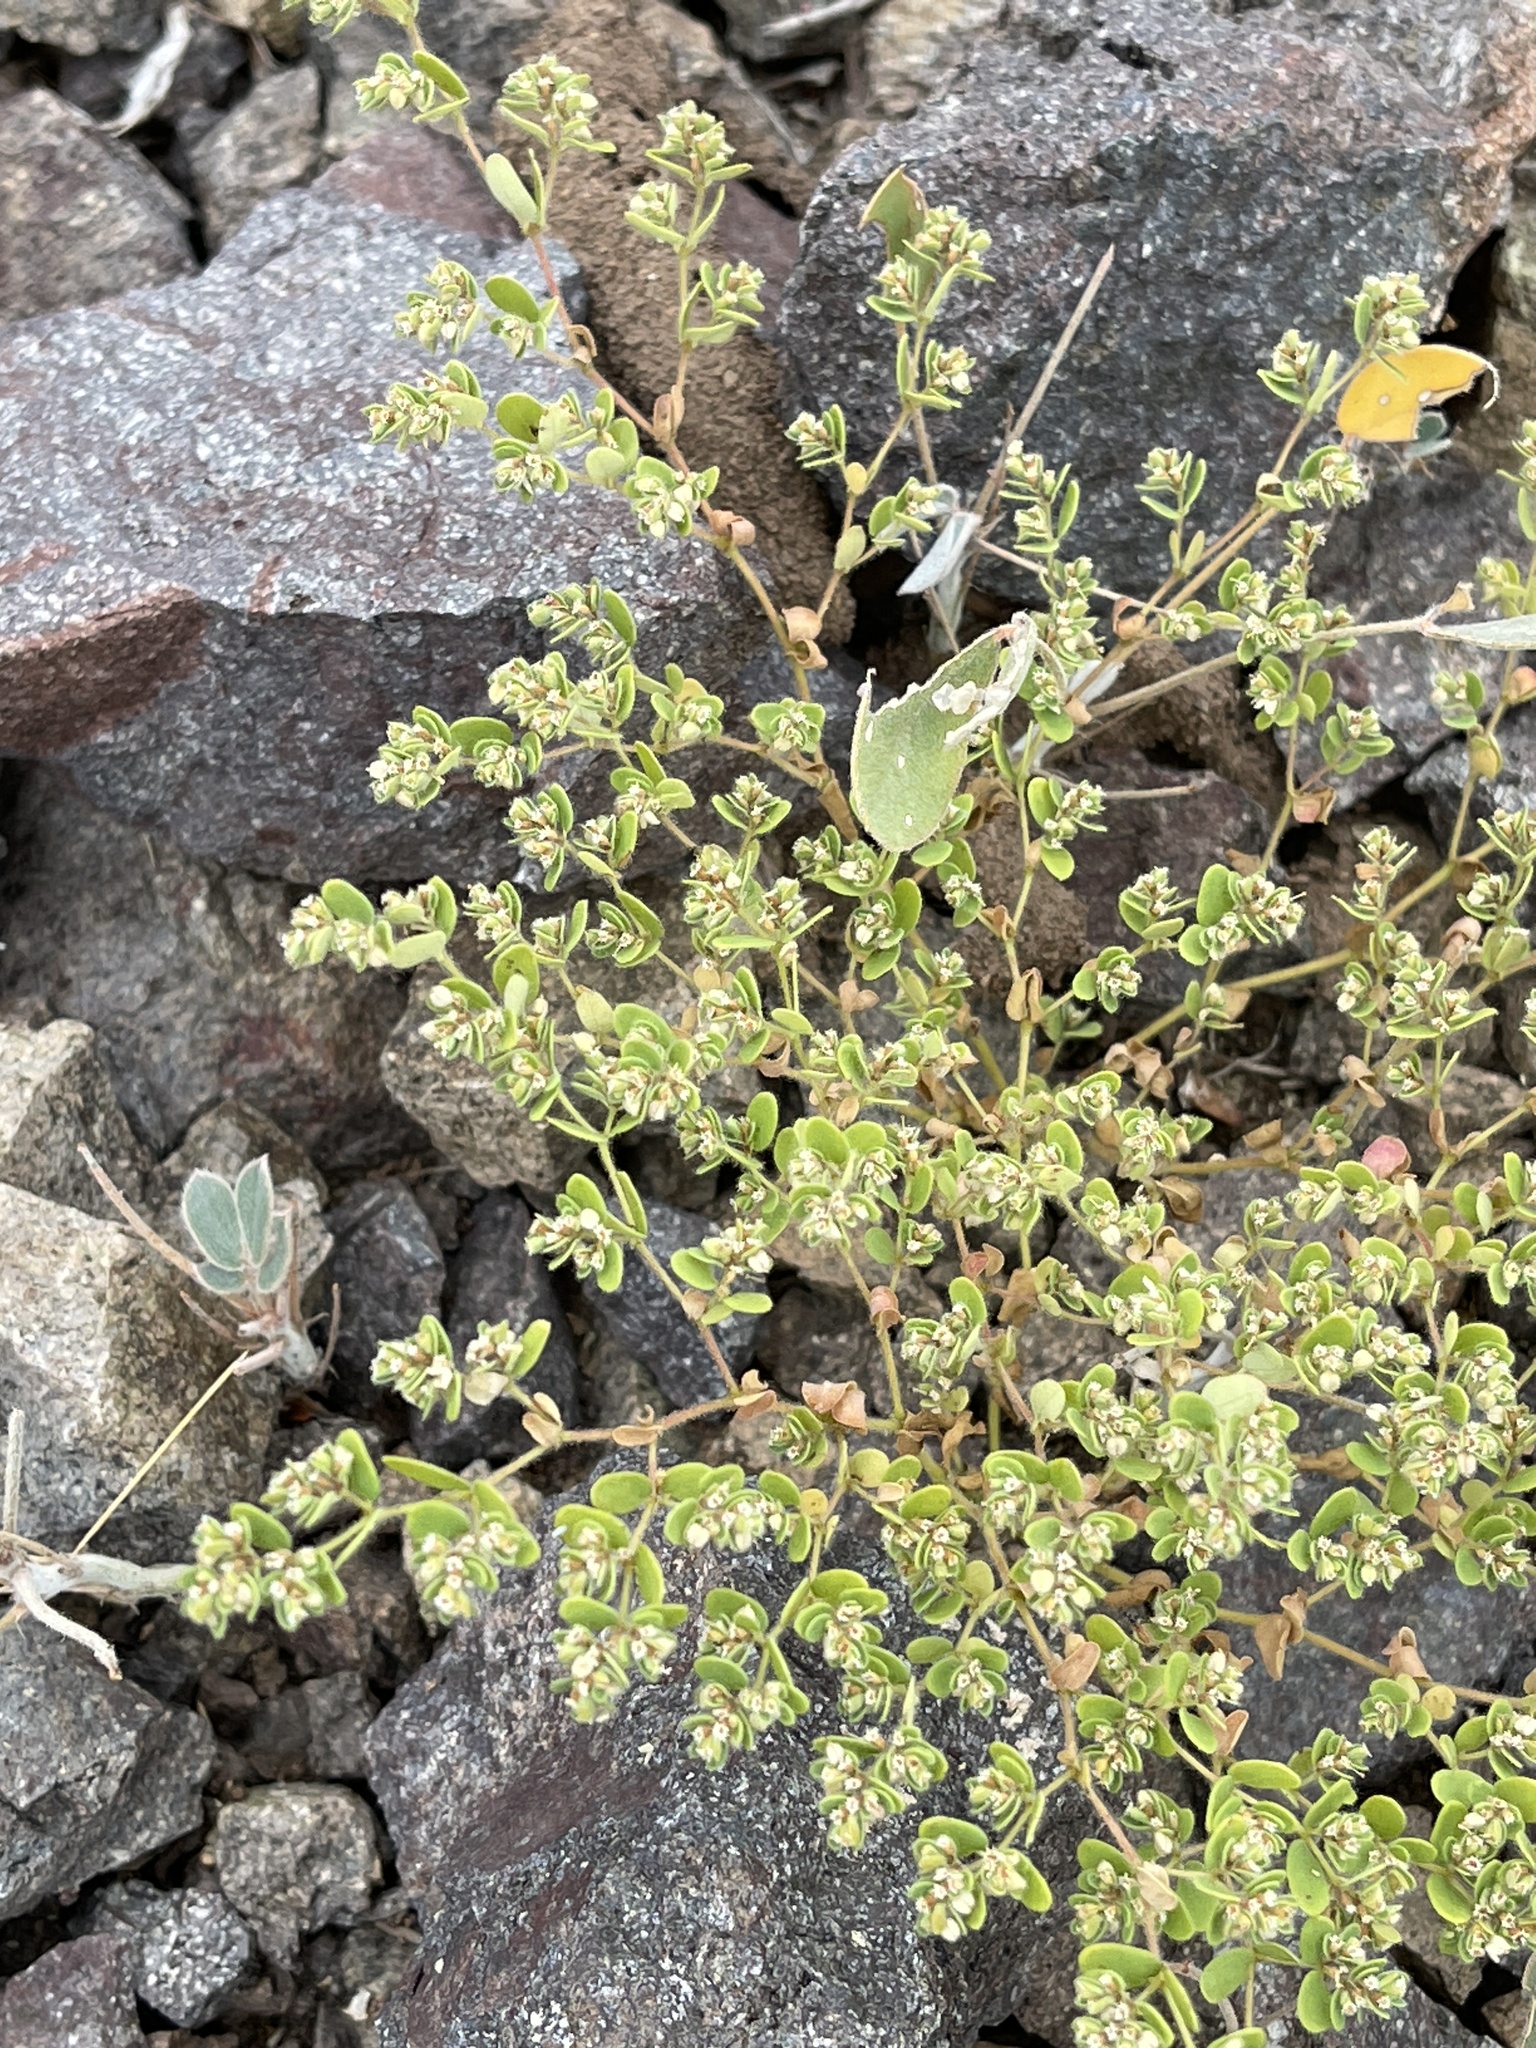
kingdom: Plantae
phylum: Tracheophyta
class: Magnoliopsida
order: Malpighiales
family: Euphorbiaceae
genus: Euphorbia
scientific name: Euphorbia setiloba
